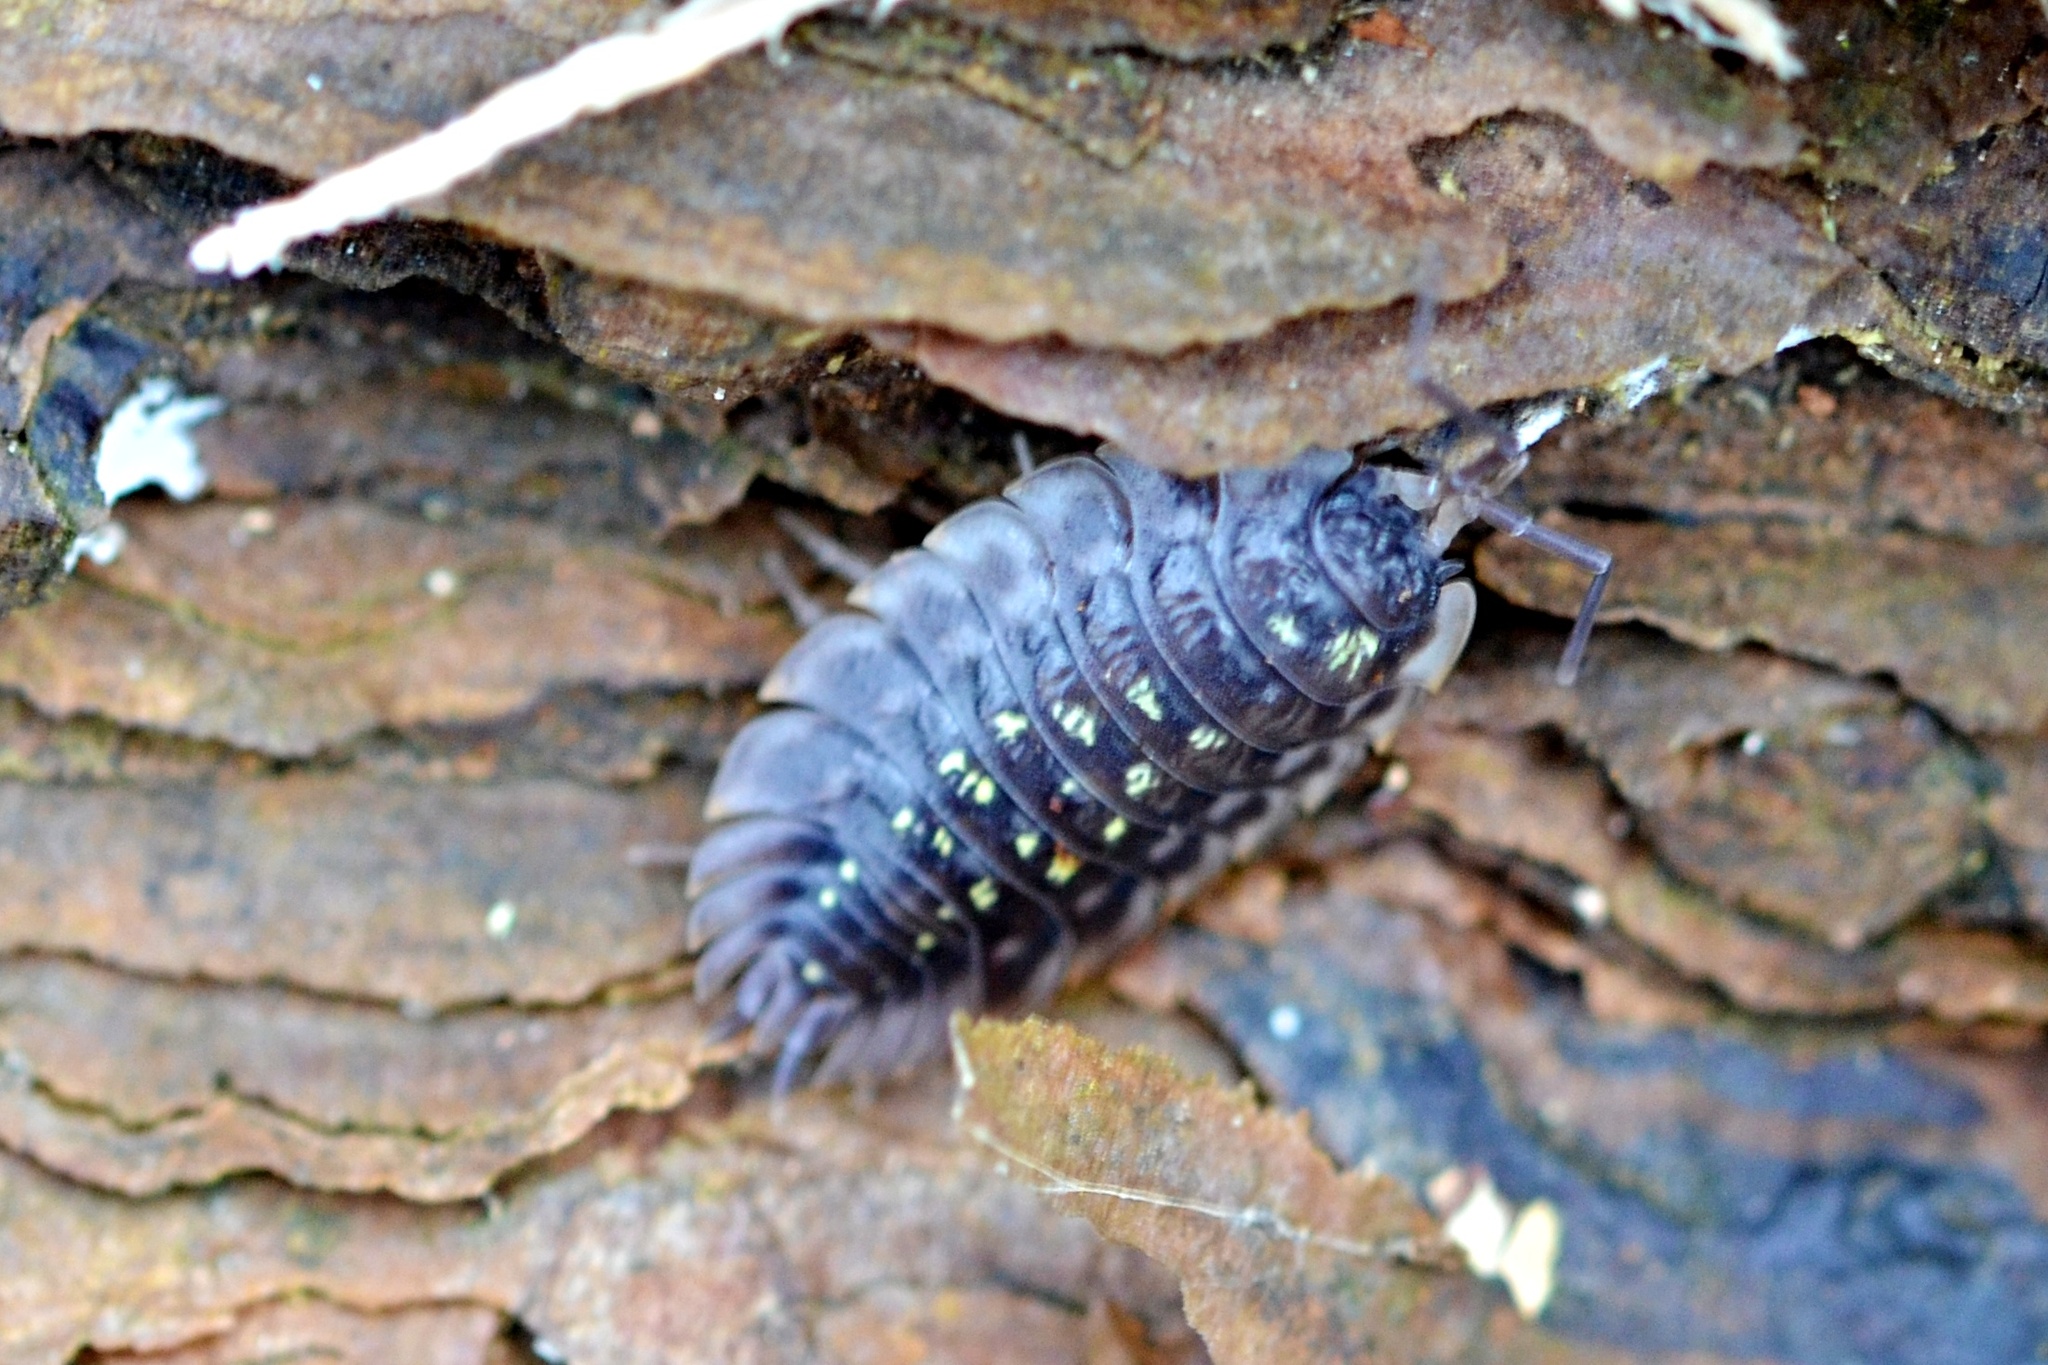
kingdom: Animalia
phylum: Arthropoda
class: Malacostraca
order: Isopoda
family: Oniscidae
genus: Oniscus
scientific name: Oniscus asellus
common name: Common shiny woodlouse
